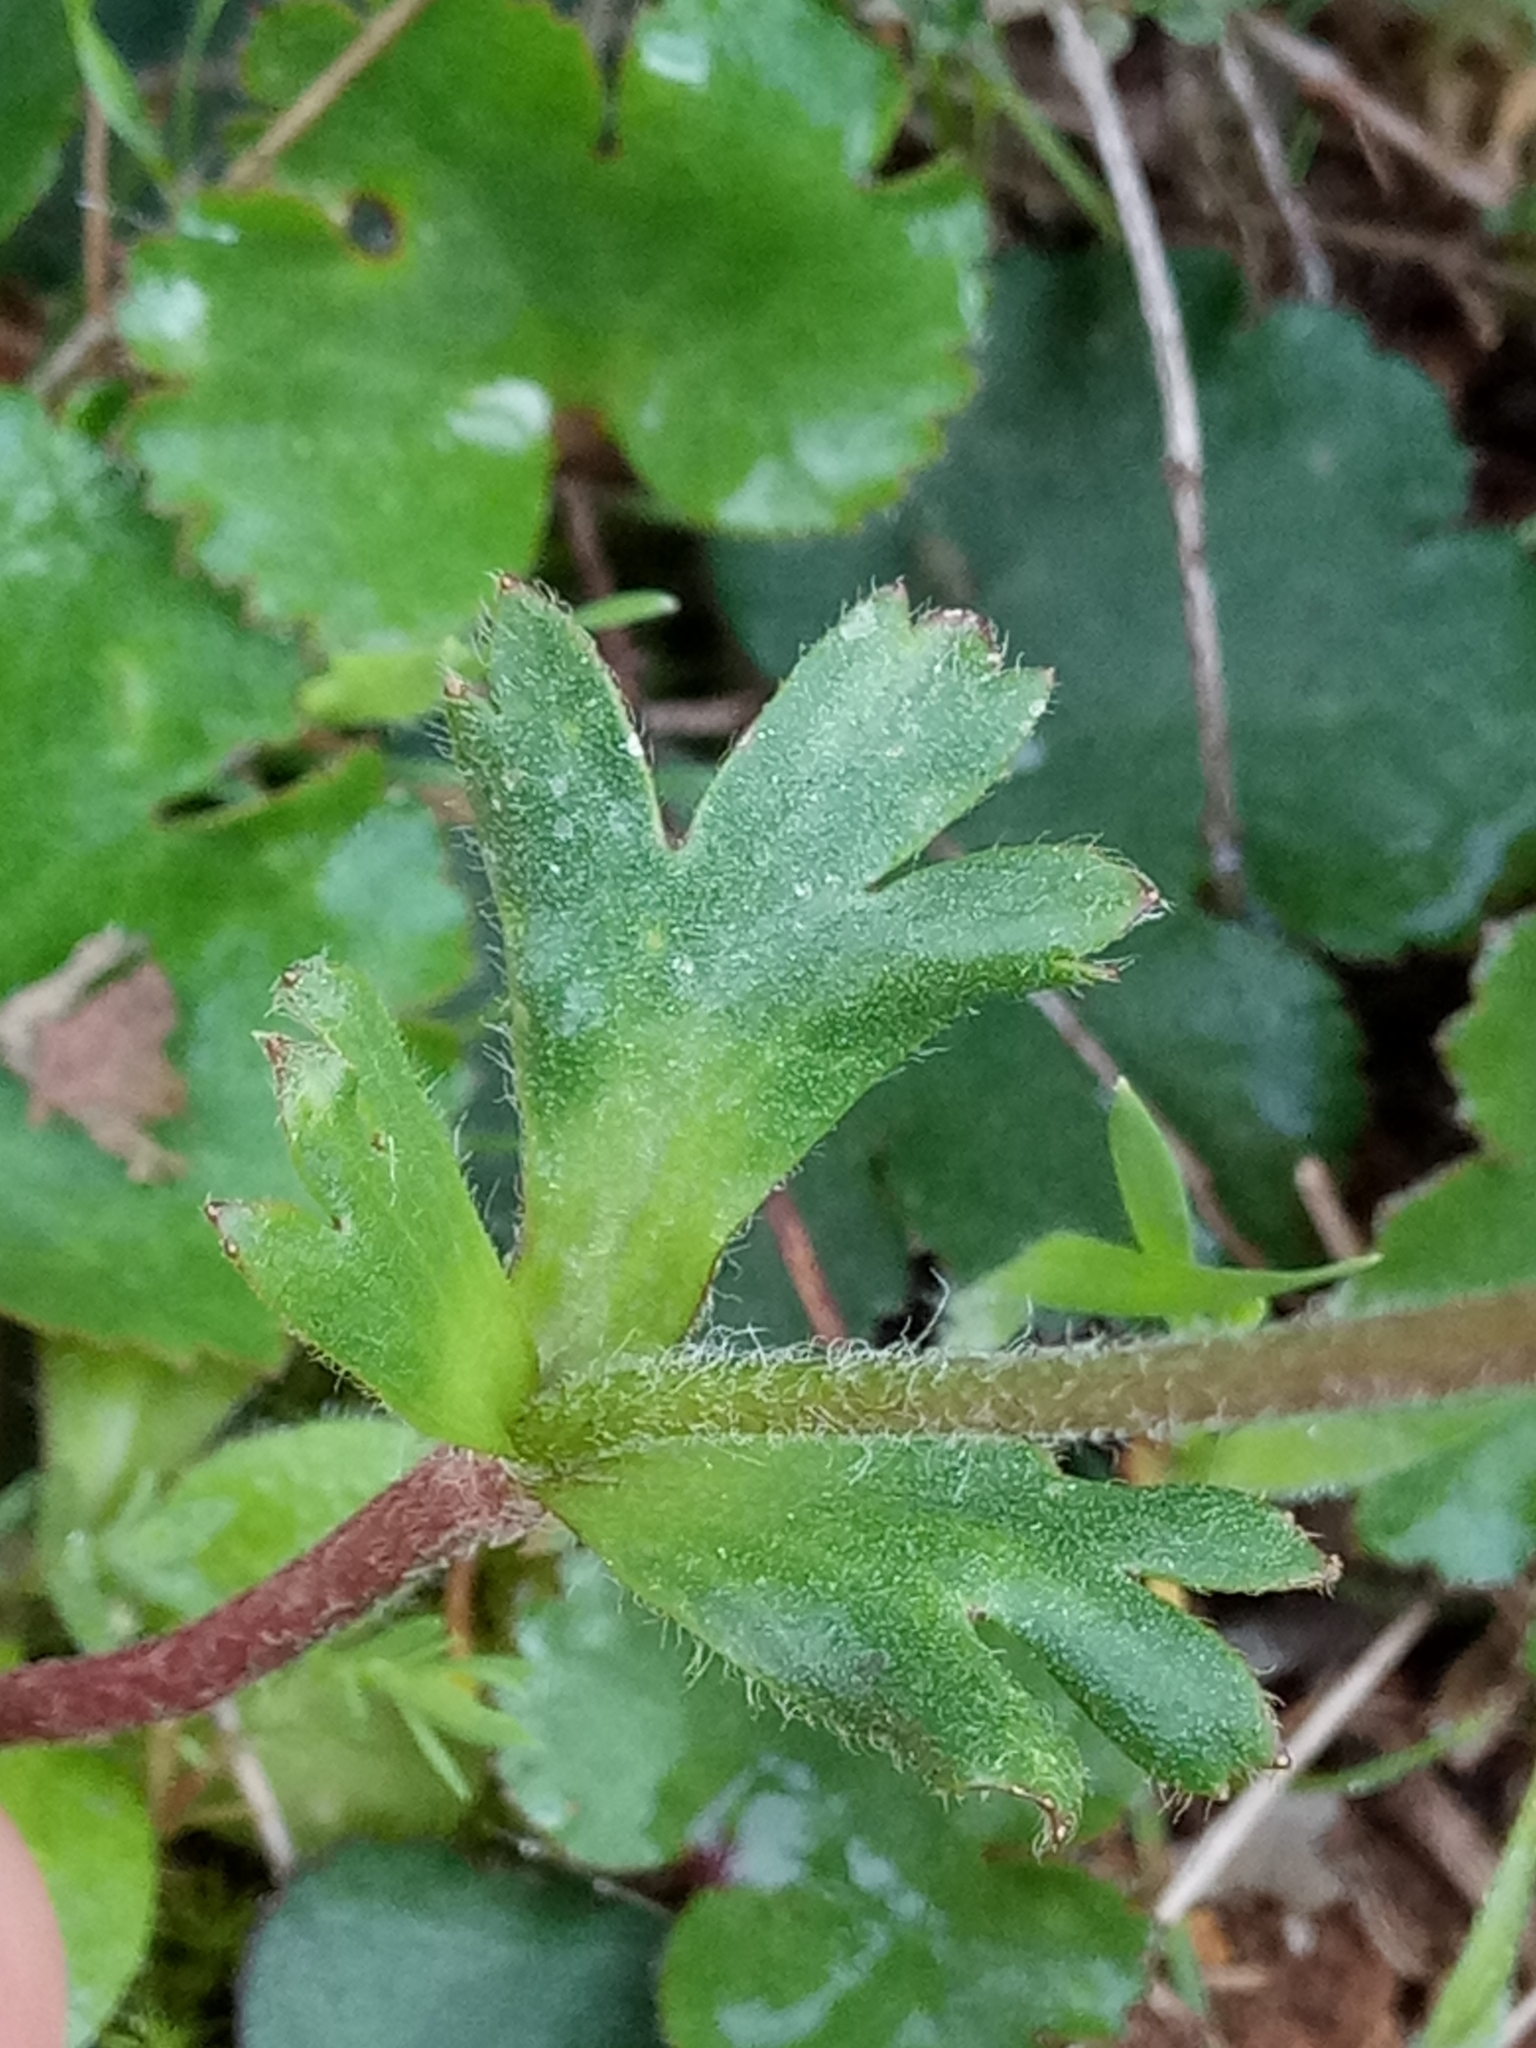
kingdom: Plantae
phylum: Tracheophyta
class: Magnoliopsida
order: Ranunculales
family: Ranunculaceae
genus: Anemone
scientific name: Anemone palmata
